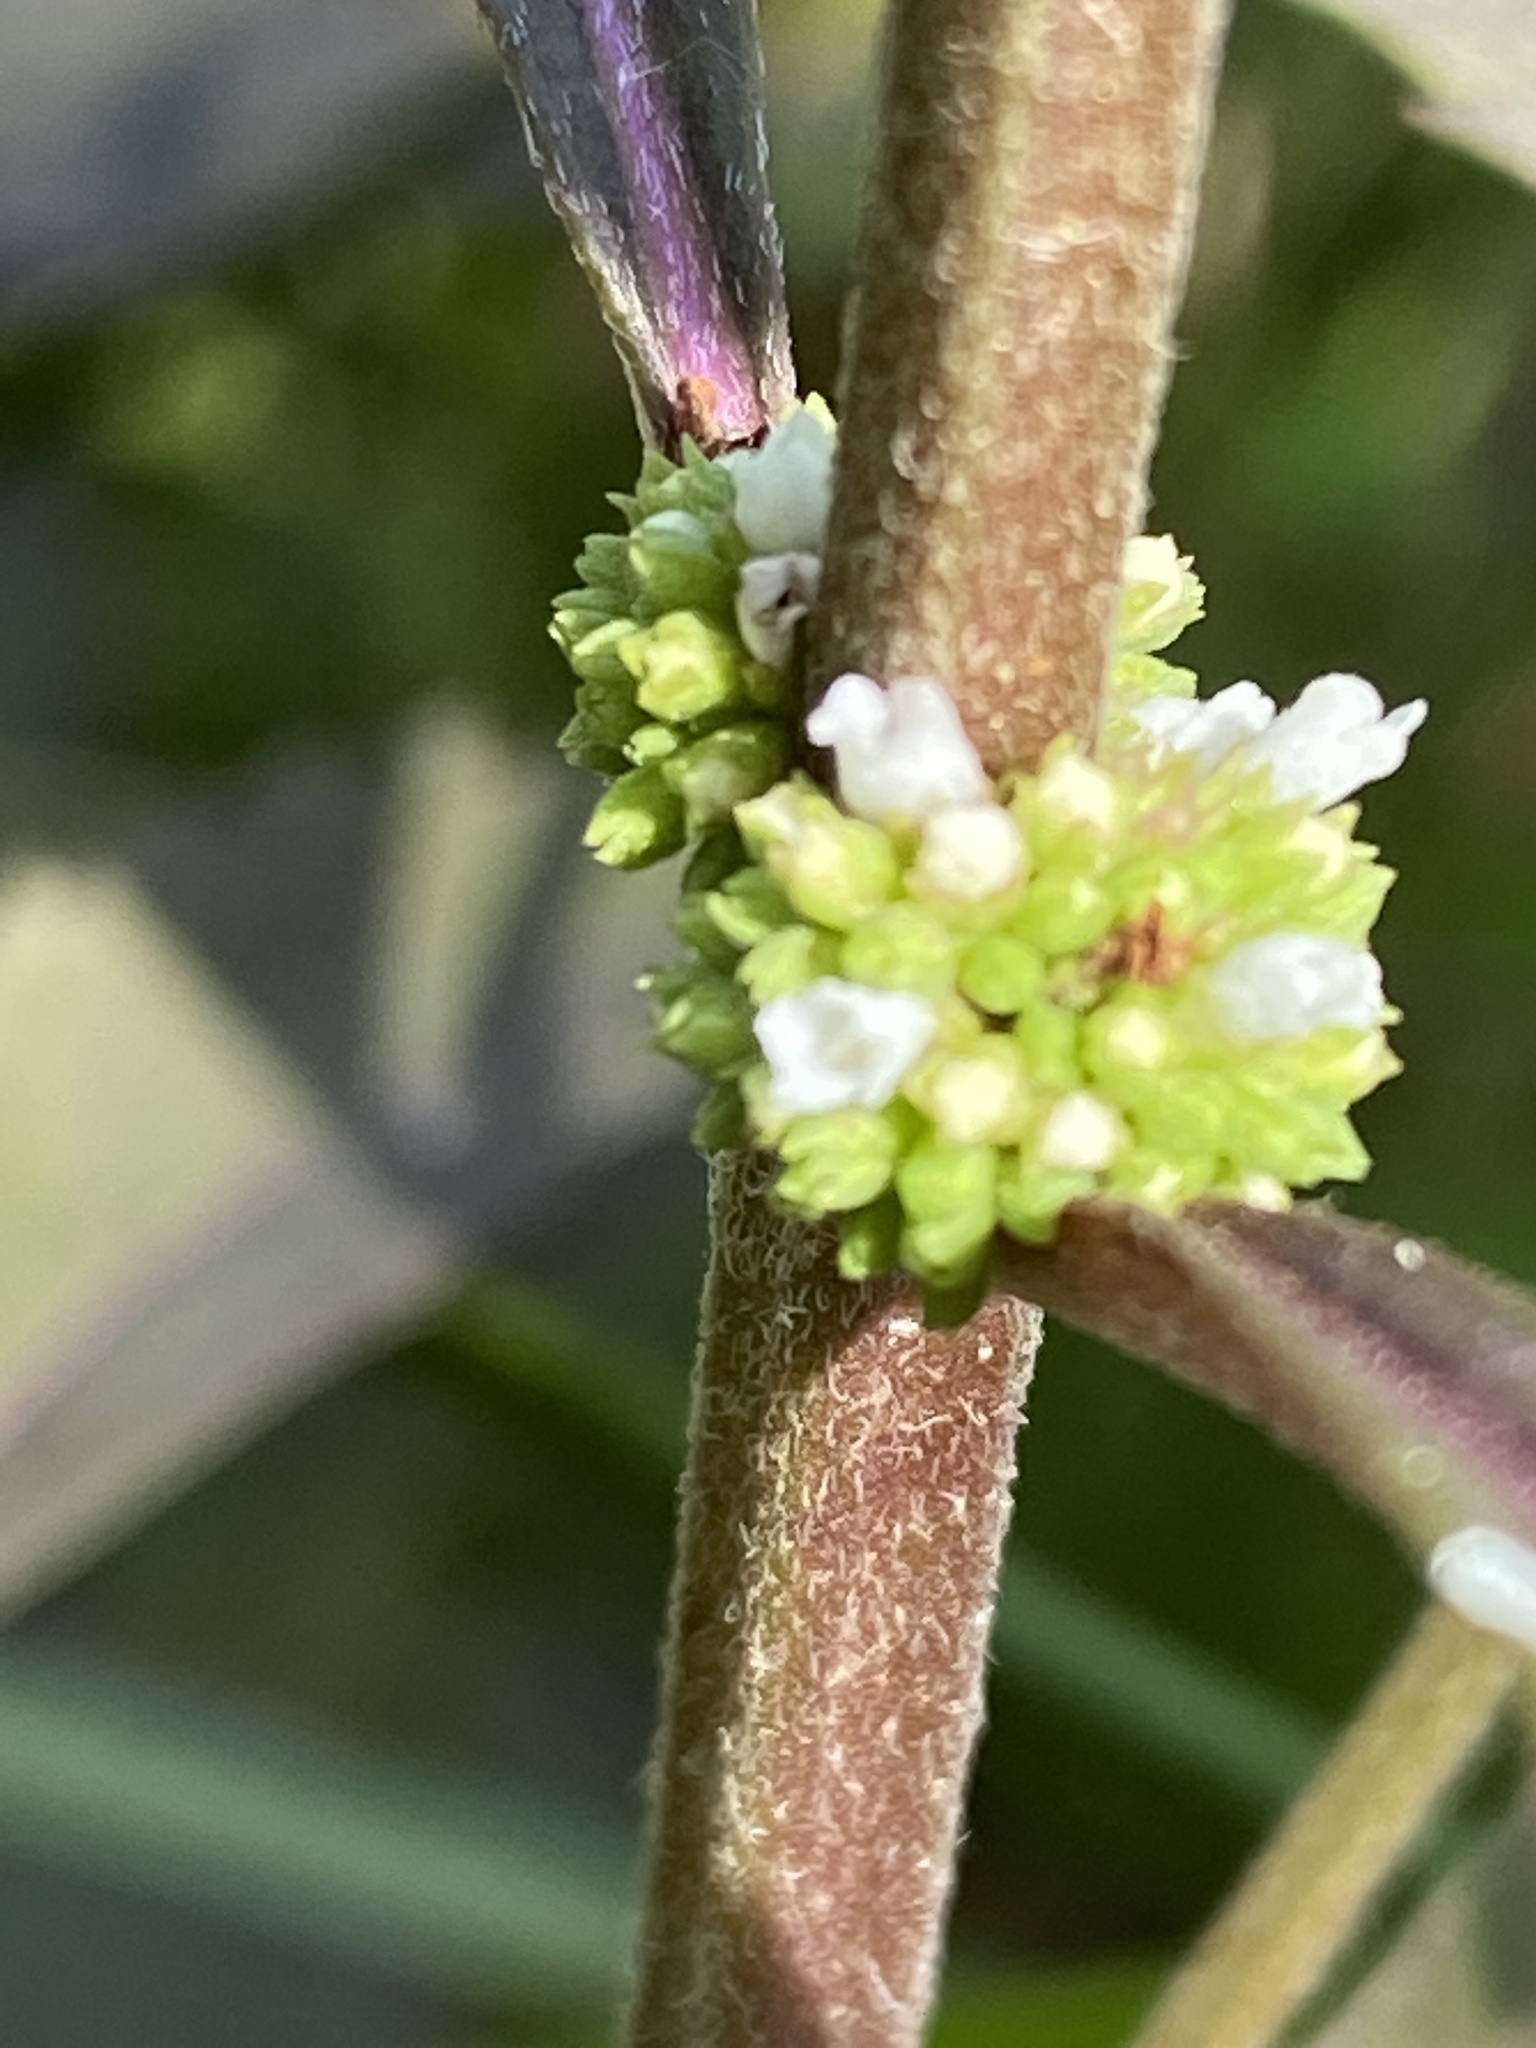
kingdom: Plantae
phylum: Tracheophyta
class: Magnoliopsida
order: Lamiales
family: Lamiaceae
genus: Lycopus
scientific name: Lycopus virginicus
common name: Bugleweed
